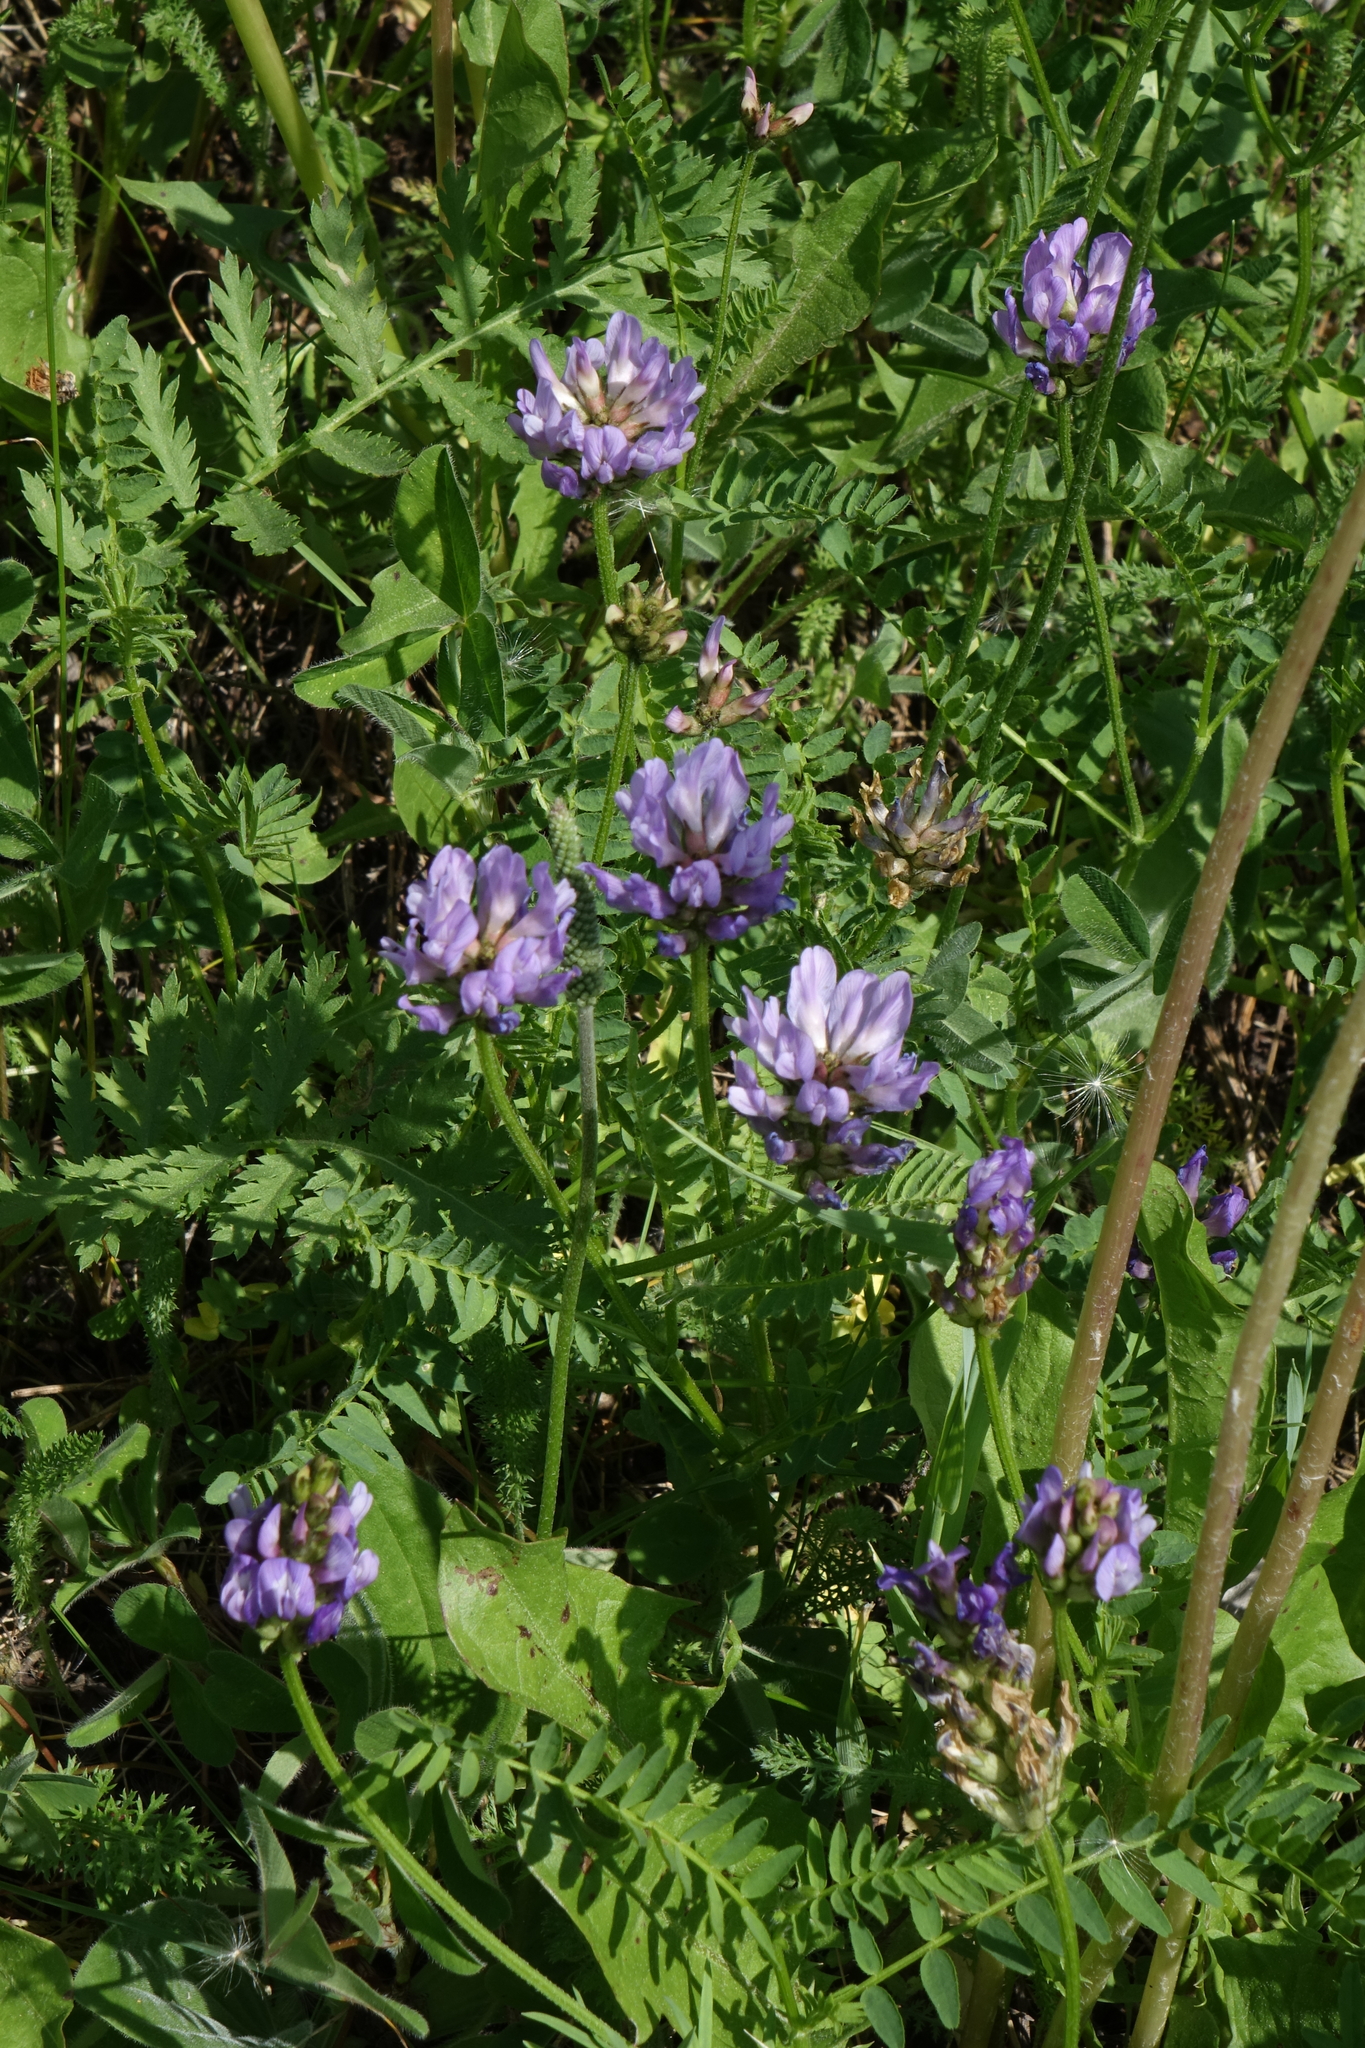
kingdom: Plantae
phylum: Tracheophyta
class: Magnoliopsida
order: Fabales
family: Fabaceae
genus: Astragalus
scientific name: Astragalus danicus
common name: Purple milk-vetch
